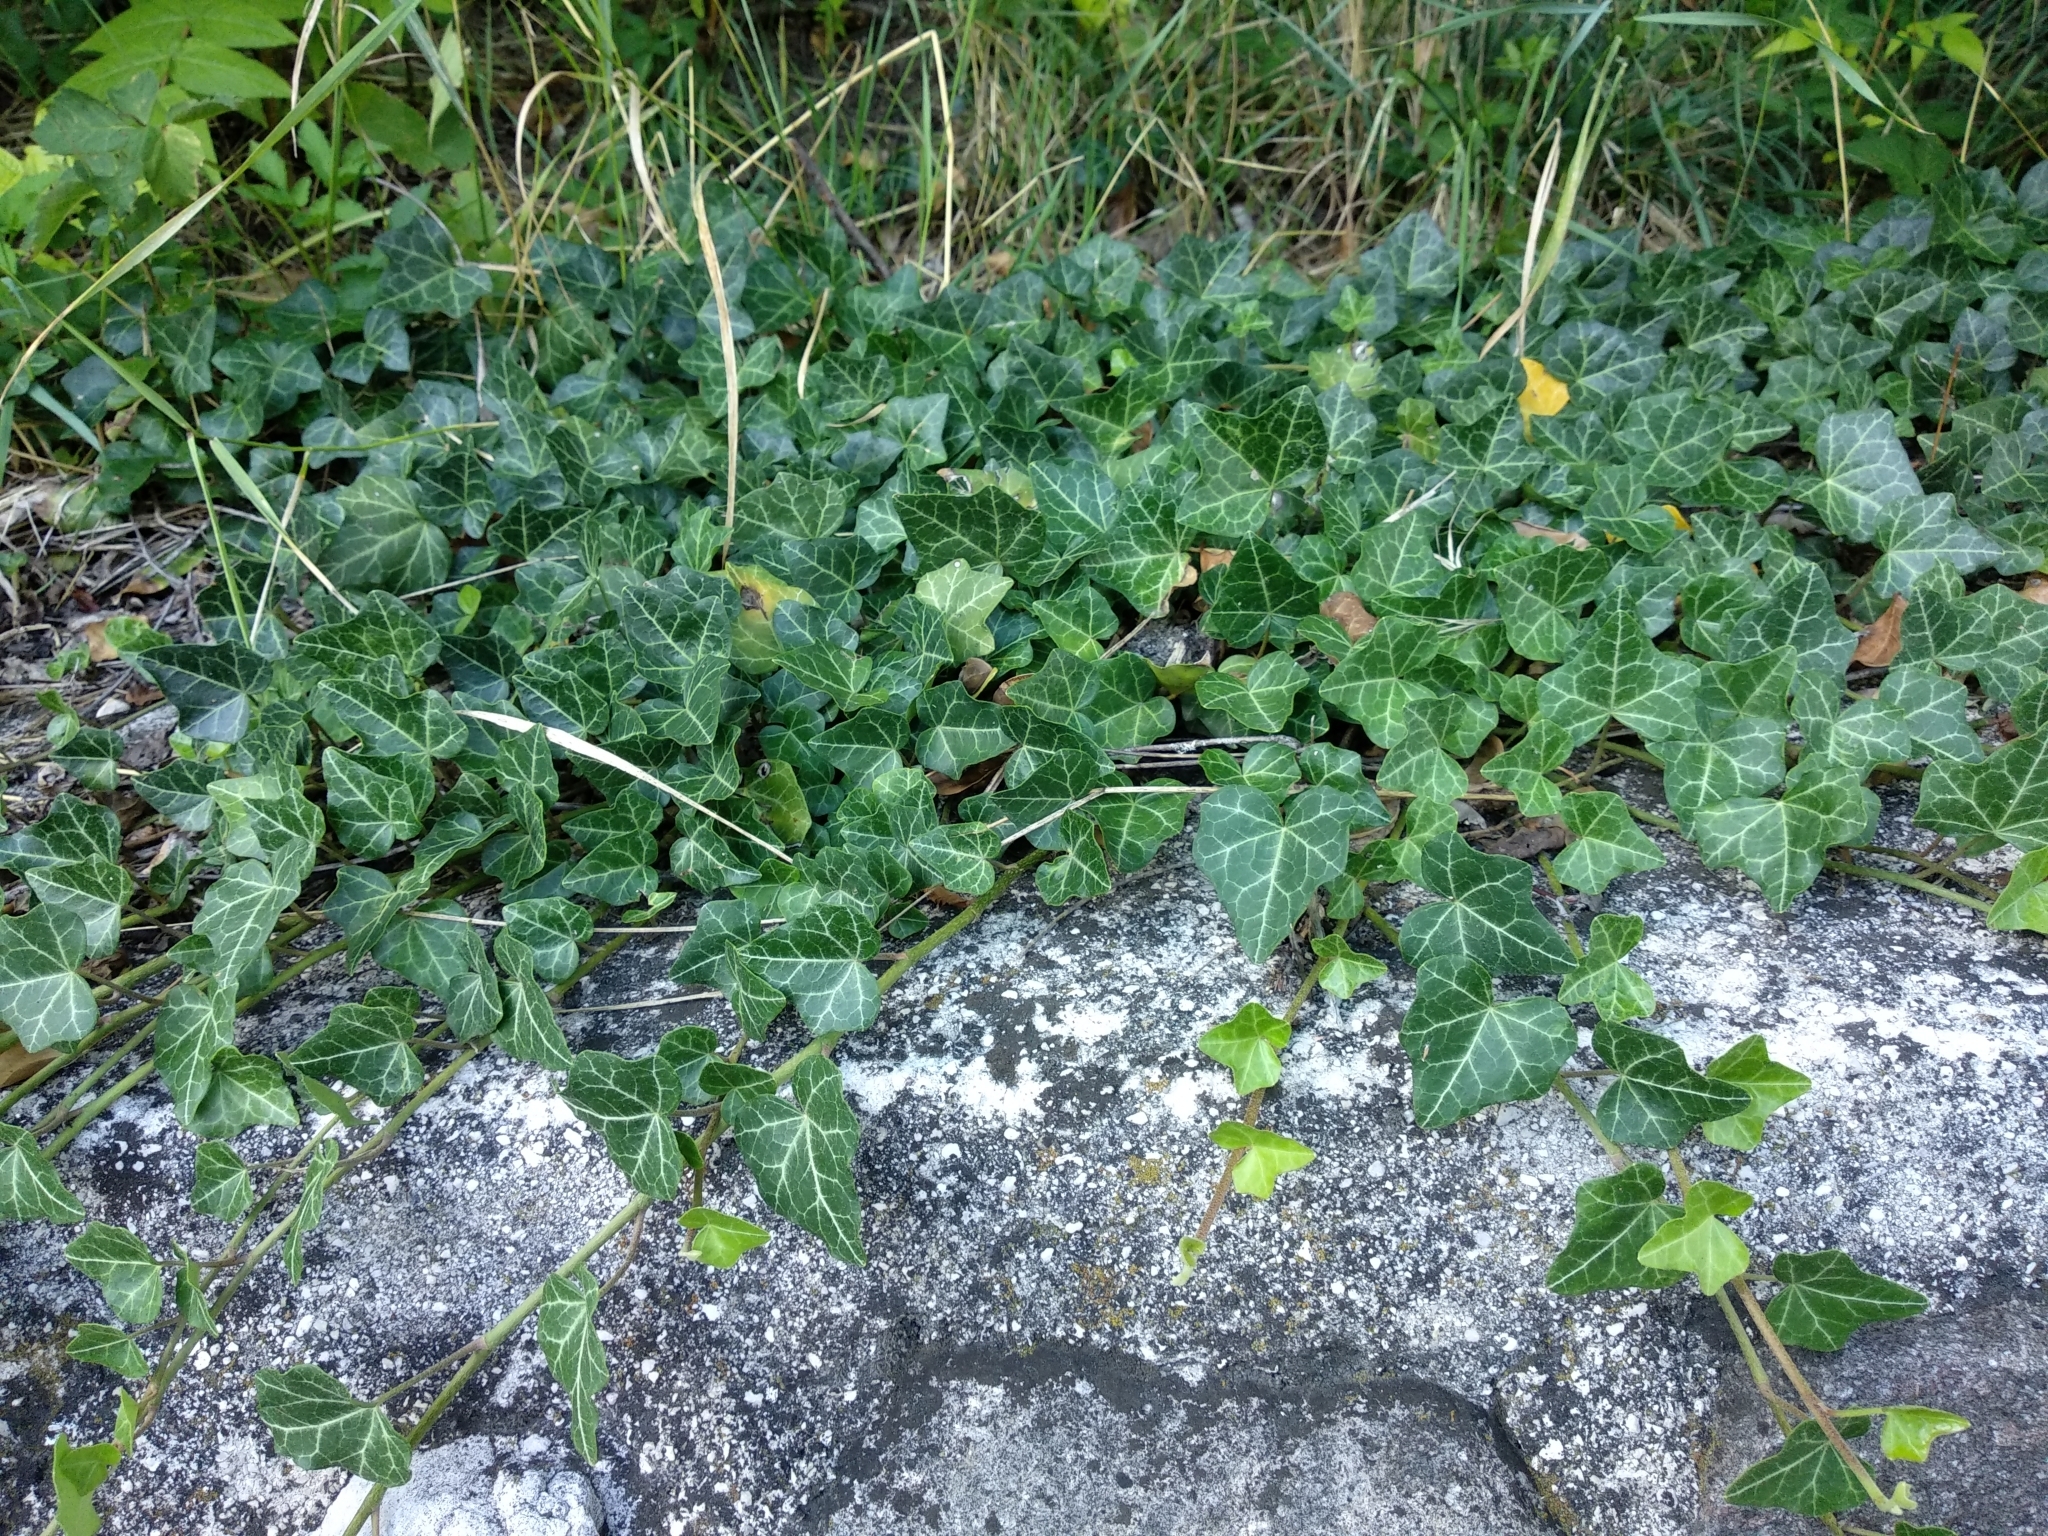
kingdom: Plantae
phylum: Tracheophyta
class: Magnoliopsida
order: Apiales
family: Araliaceae
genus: Hedera
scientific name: Hedera helix
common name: Ivy
